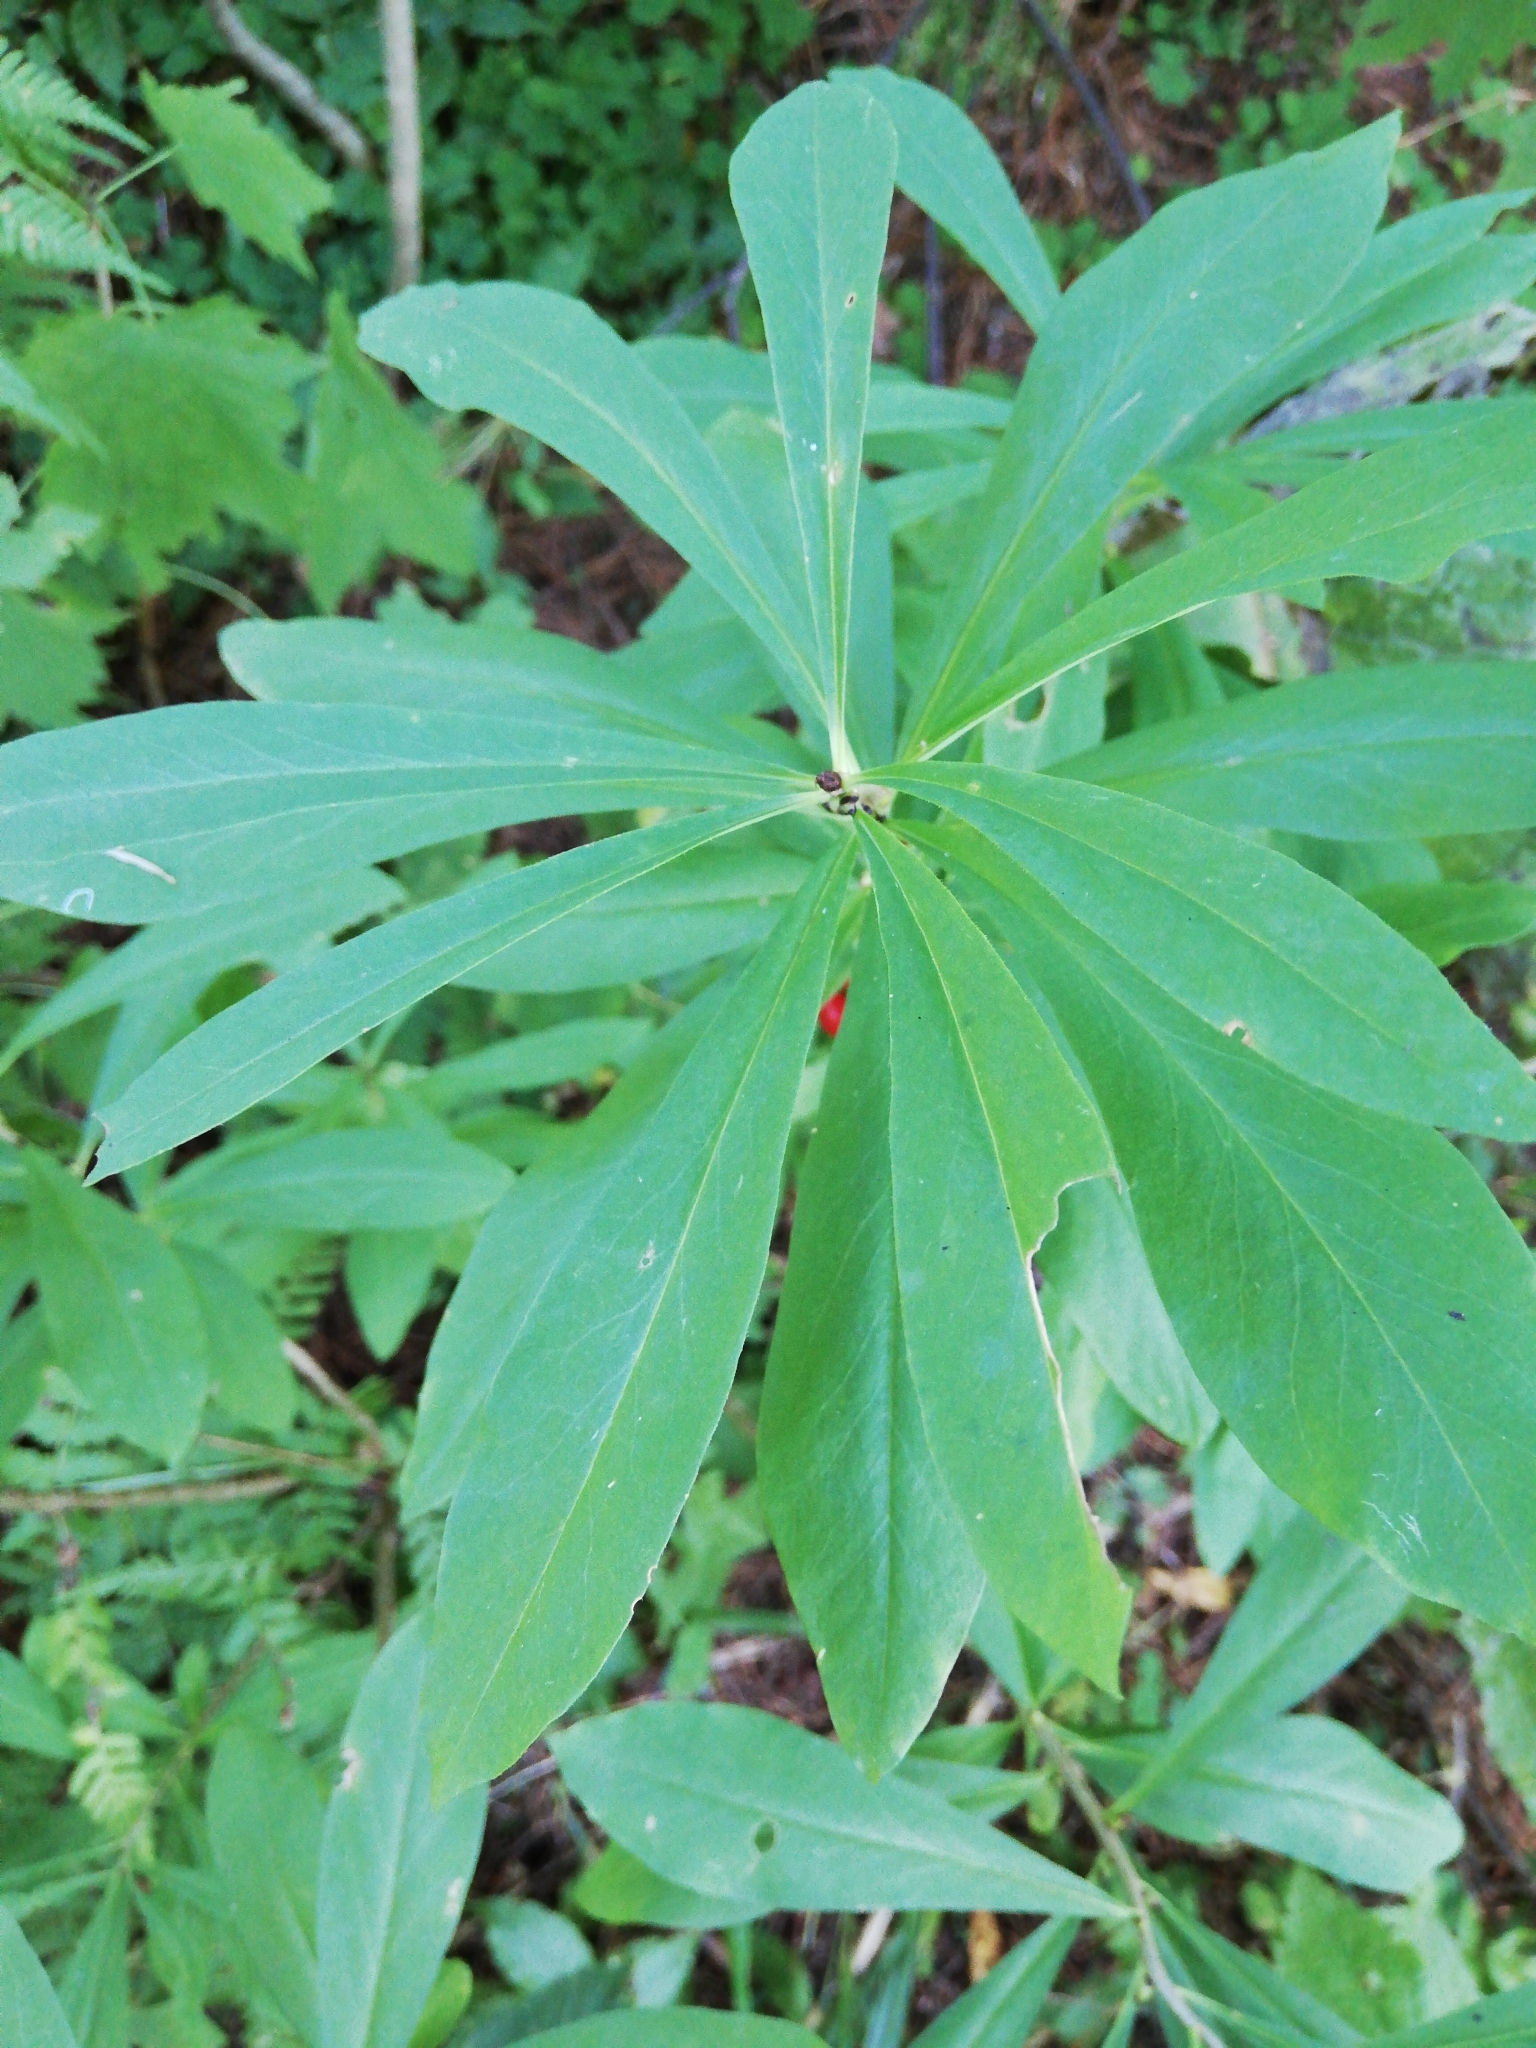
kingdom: Plantae
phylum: Tracheophyta
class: Magnoliopsida
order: Malvales
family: Thymelaeaceae
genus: Daphne
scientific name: Daphne mezereum
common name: Mezereon
